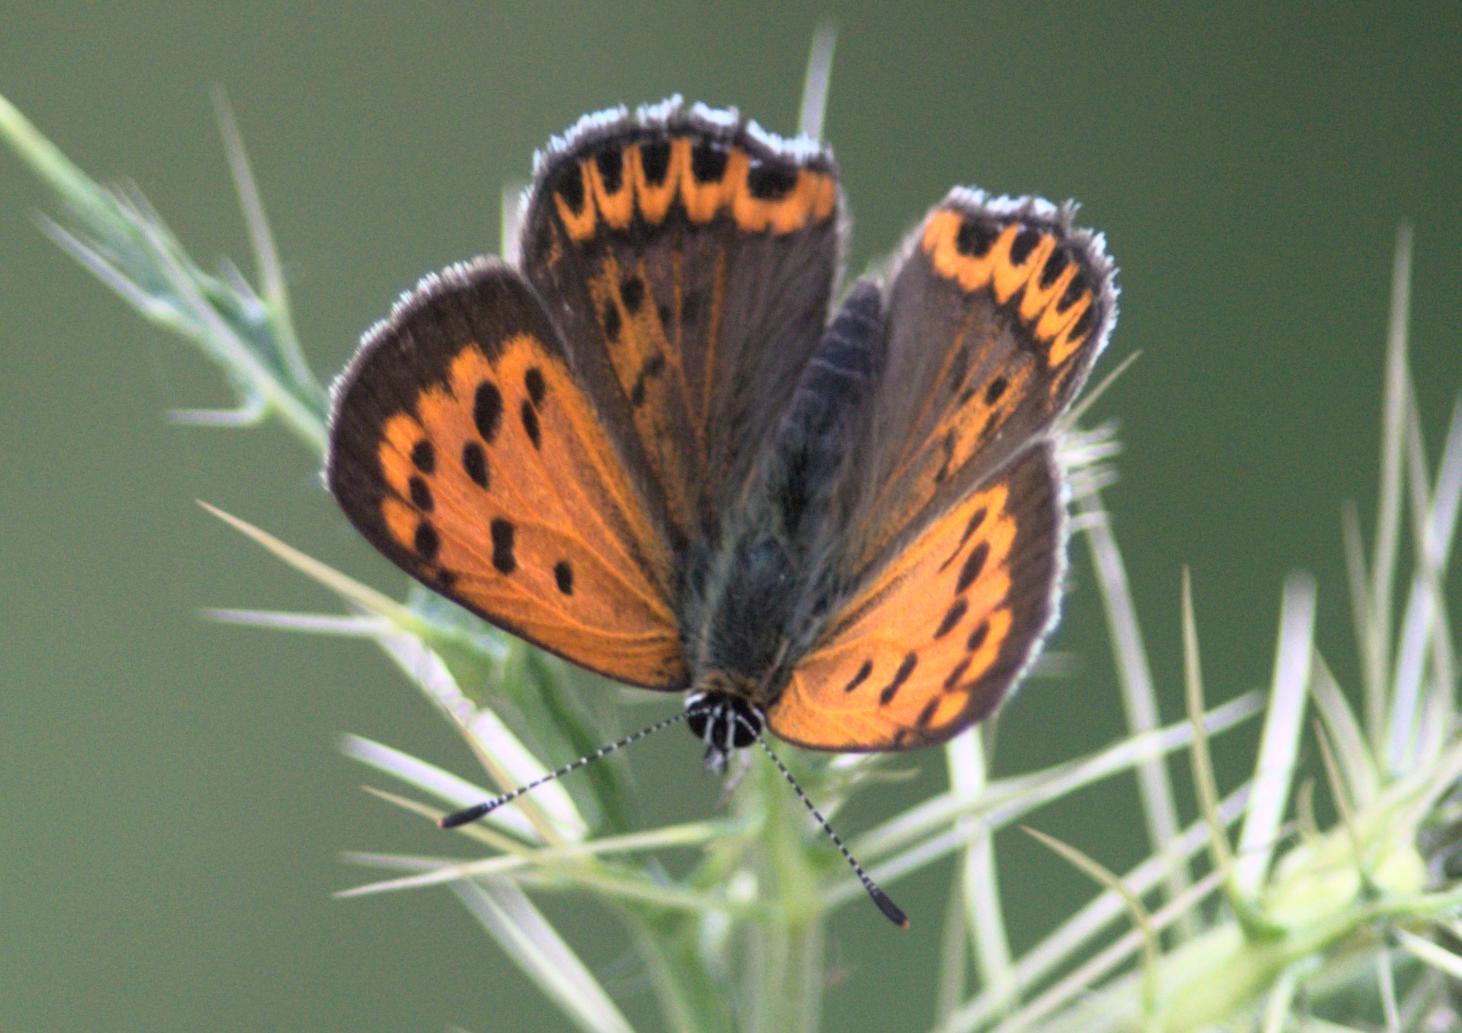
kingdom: Animalia
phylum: Arthropoda
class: Insecta
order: Lepidoptera
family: Lycaenidae
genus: Lycaena
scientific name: Lycaena panava
